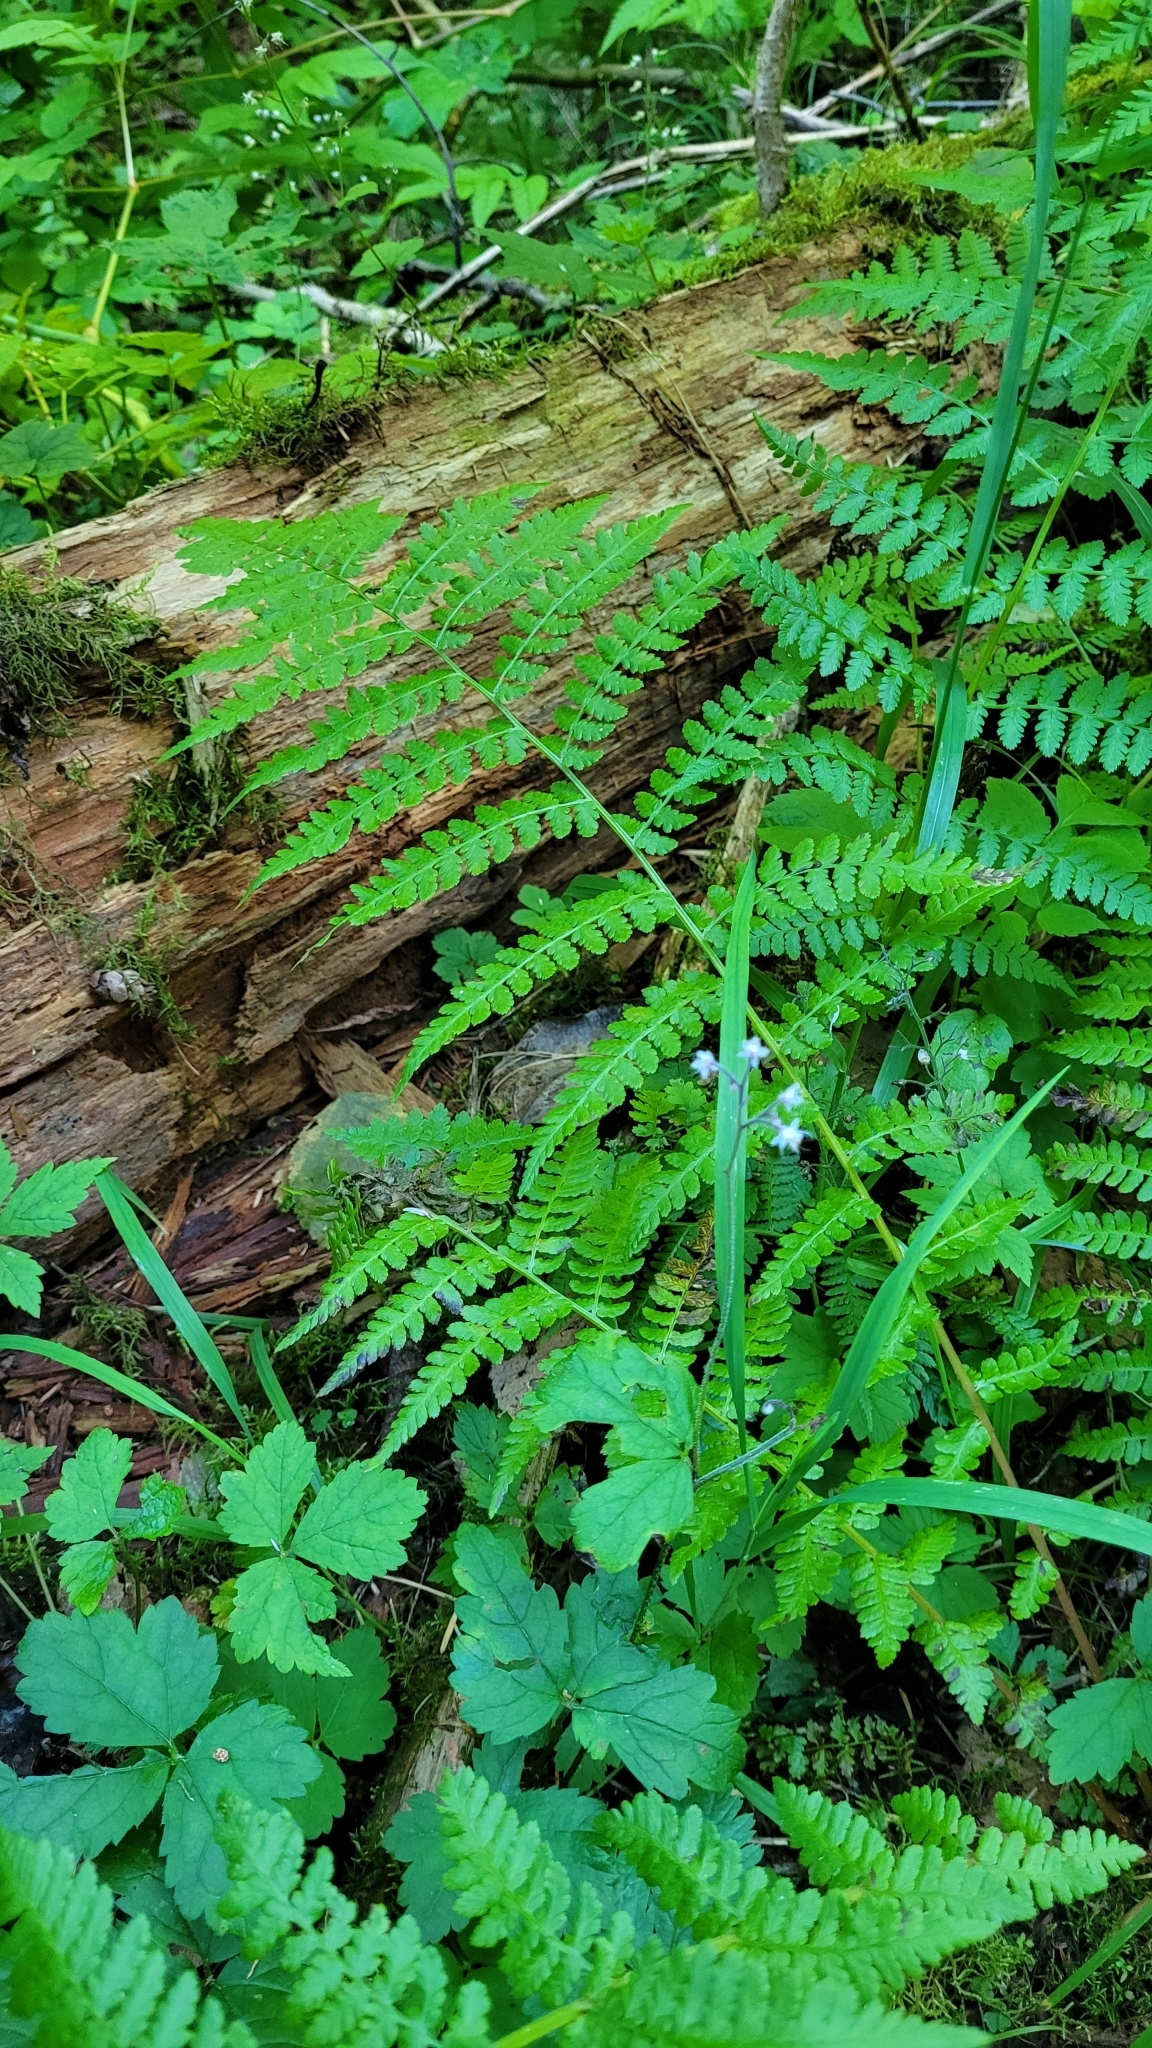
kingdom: Plantae
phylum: Tracheophyta
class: Polypodiopsida
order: Polypodiales
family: Athyriaceae
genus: Athyrium
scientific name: Athyrium cyclosorum
